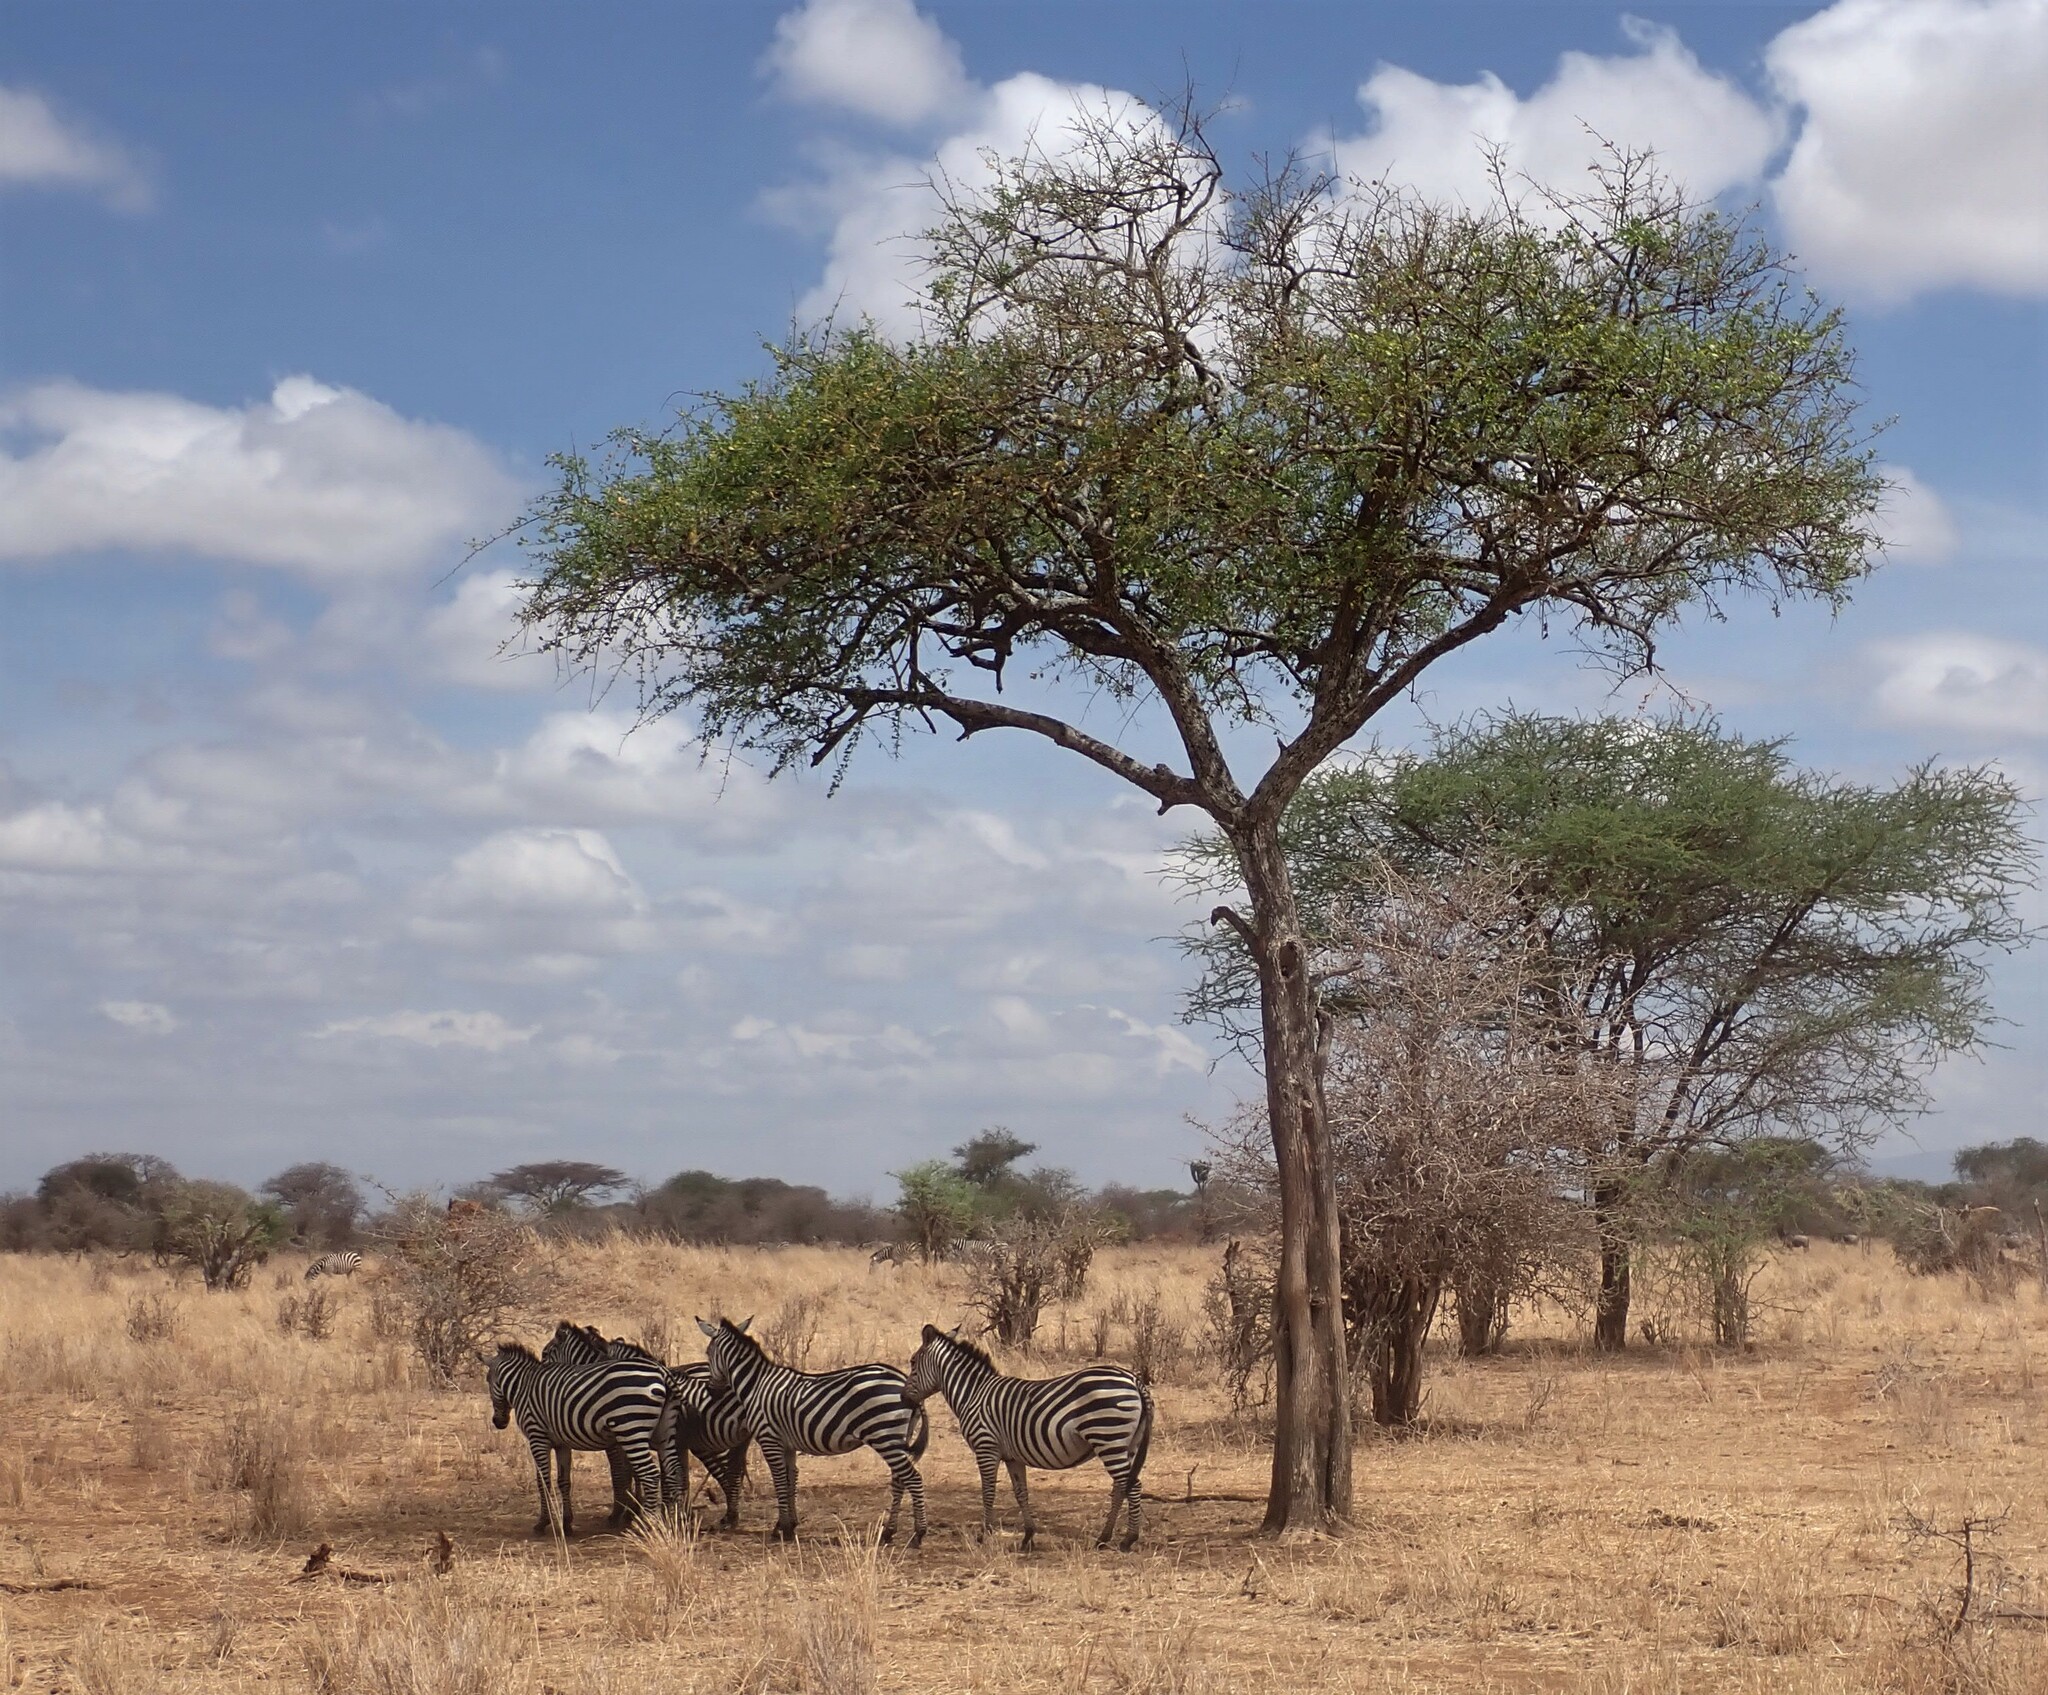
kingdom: Animalia
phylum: Chordata
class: Mammalia
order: Perissodactyla
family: Equidae
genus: Equus
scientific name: Equus quagga
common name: Plains zebra
